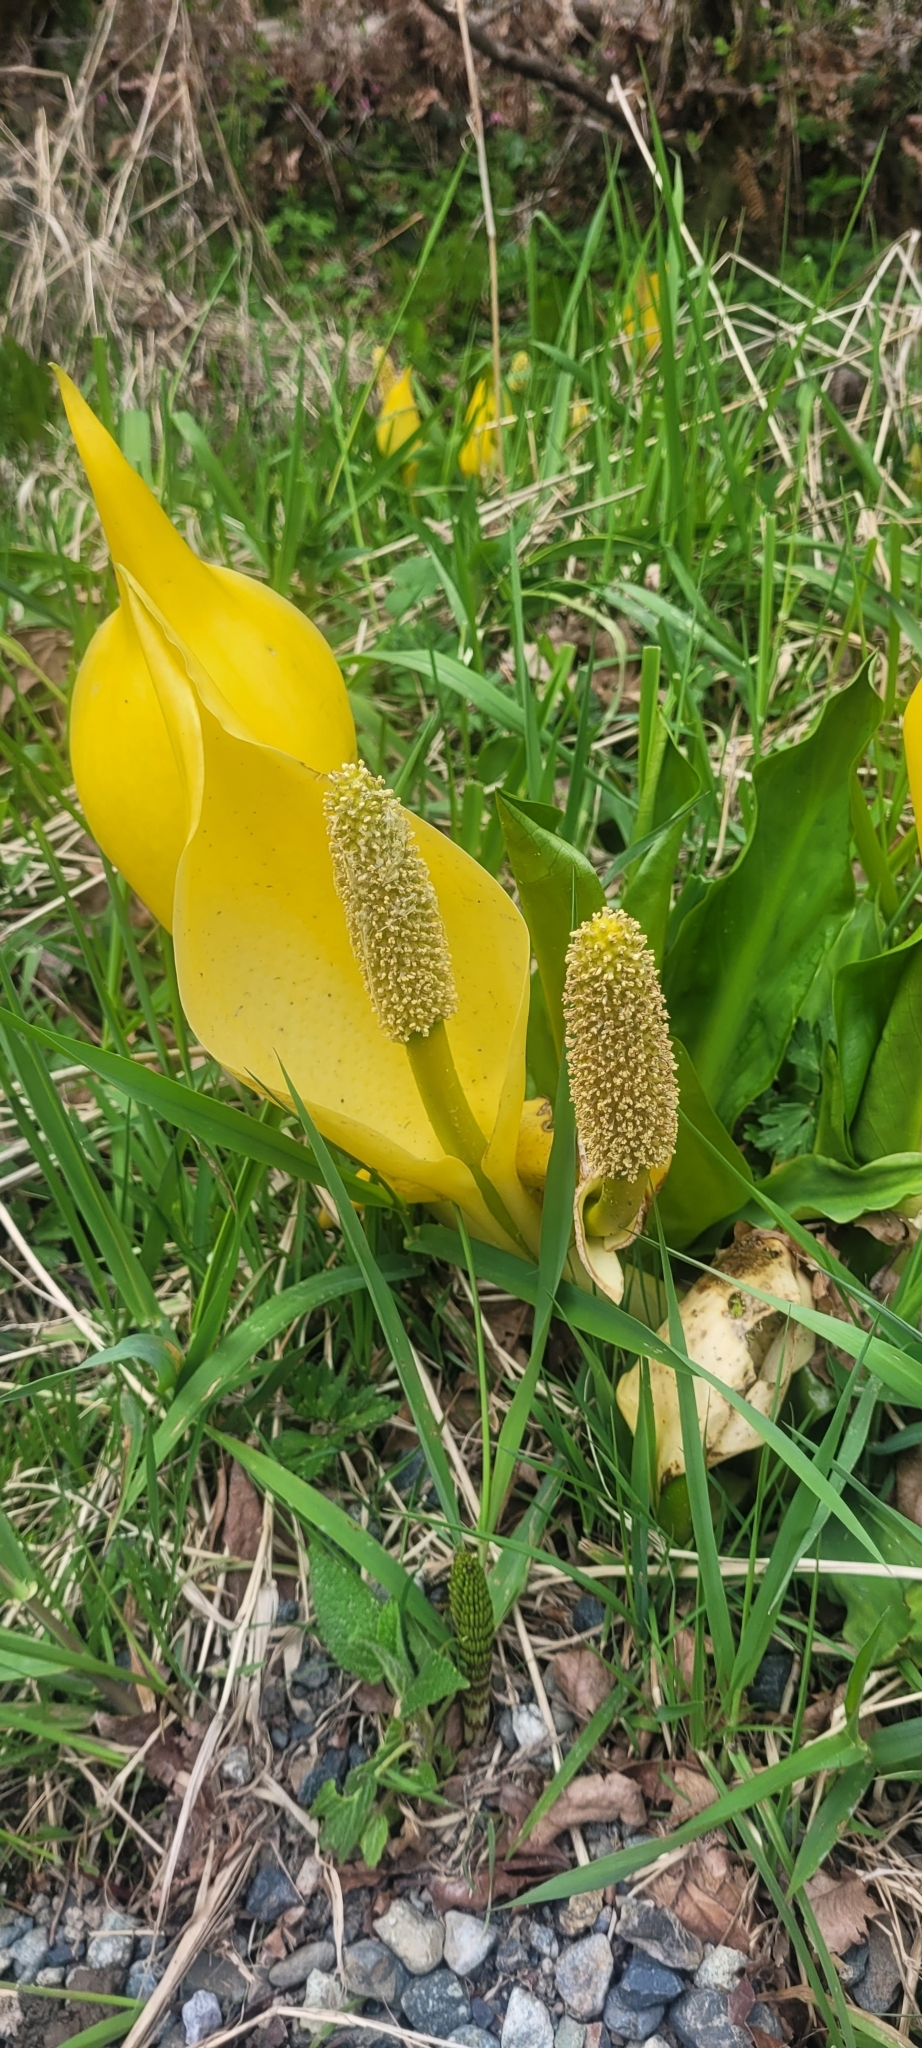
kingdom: Plantae
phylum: Tracheophyta
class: Liliopsida
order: Alismatales
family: Araceae
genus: Lysichiton
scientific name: Lysichiton americanus
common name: American skunk cabbage
